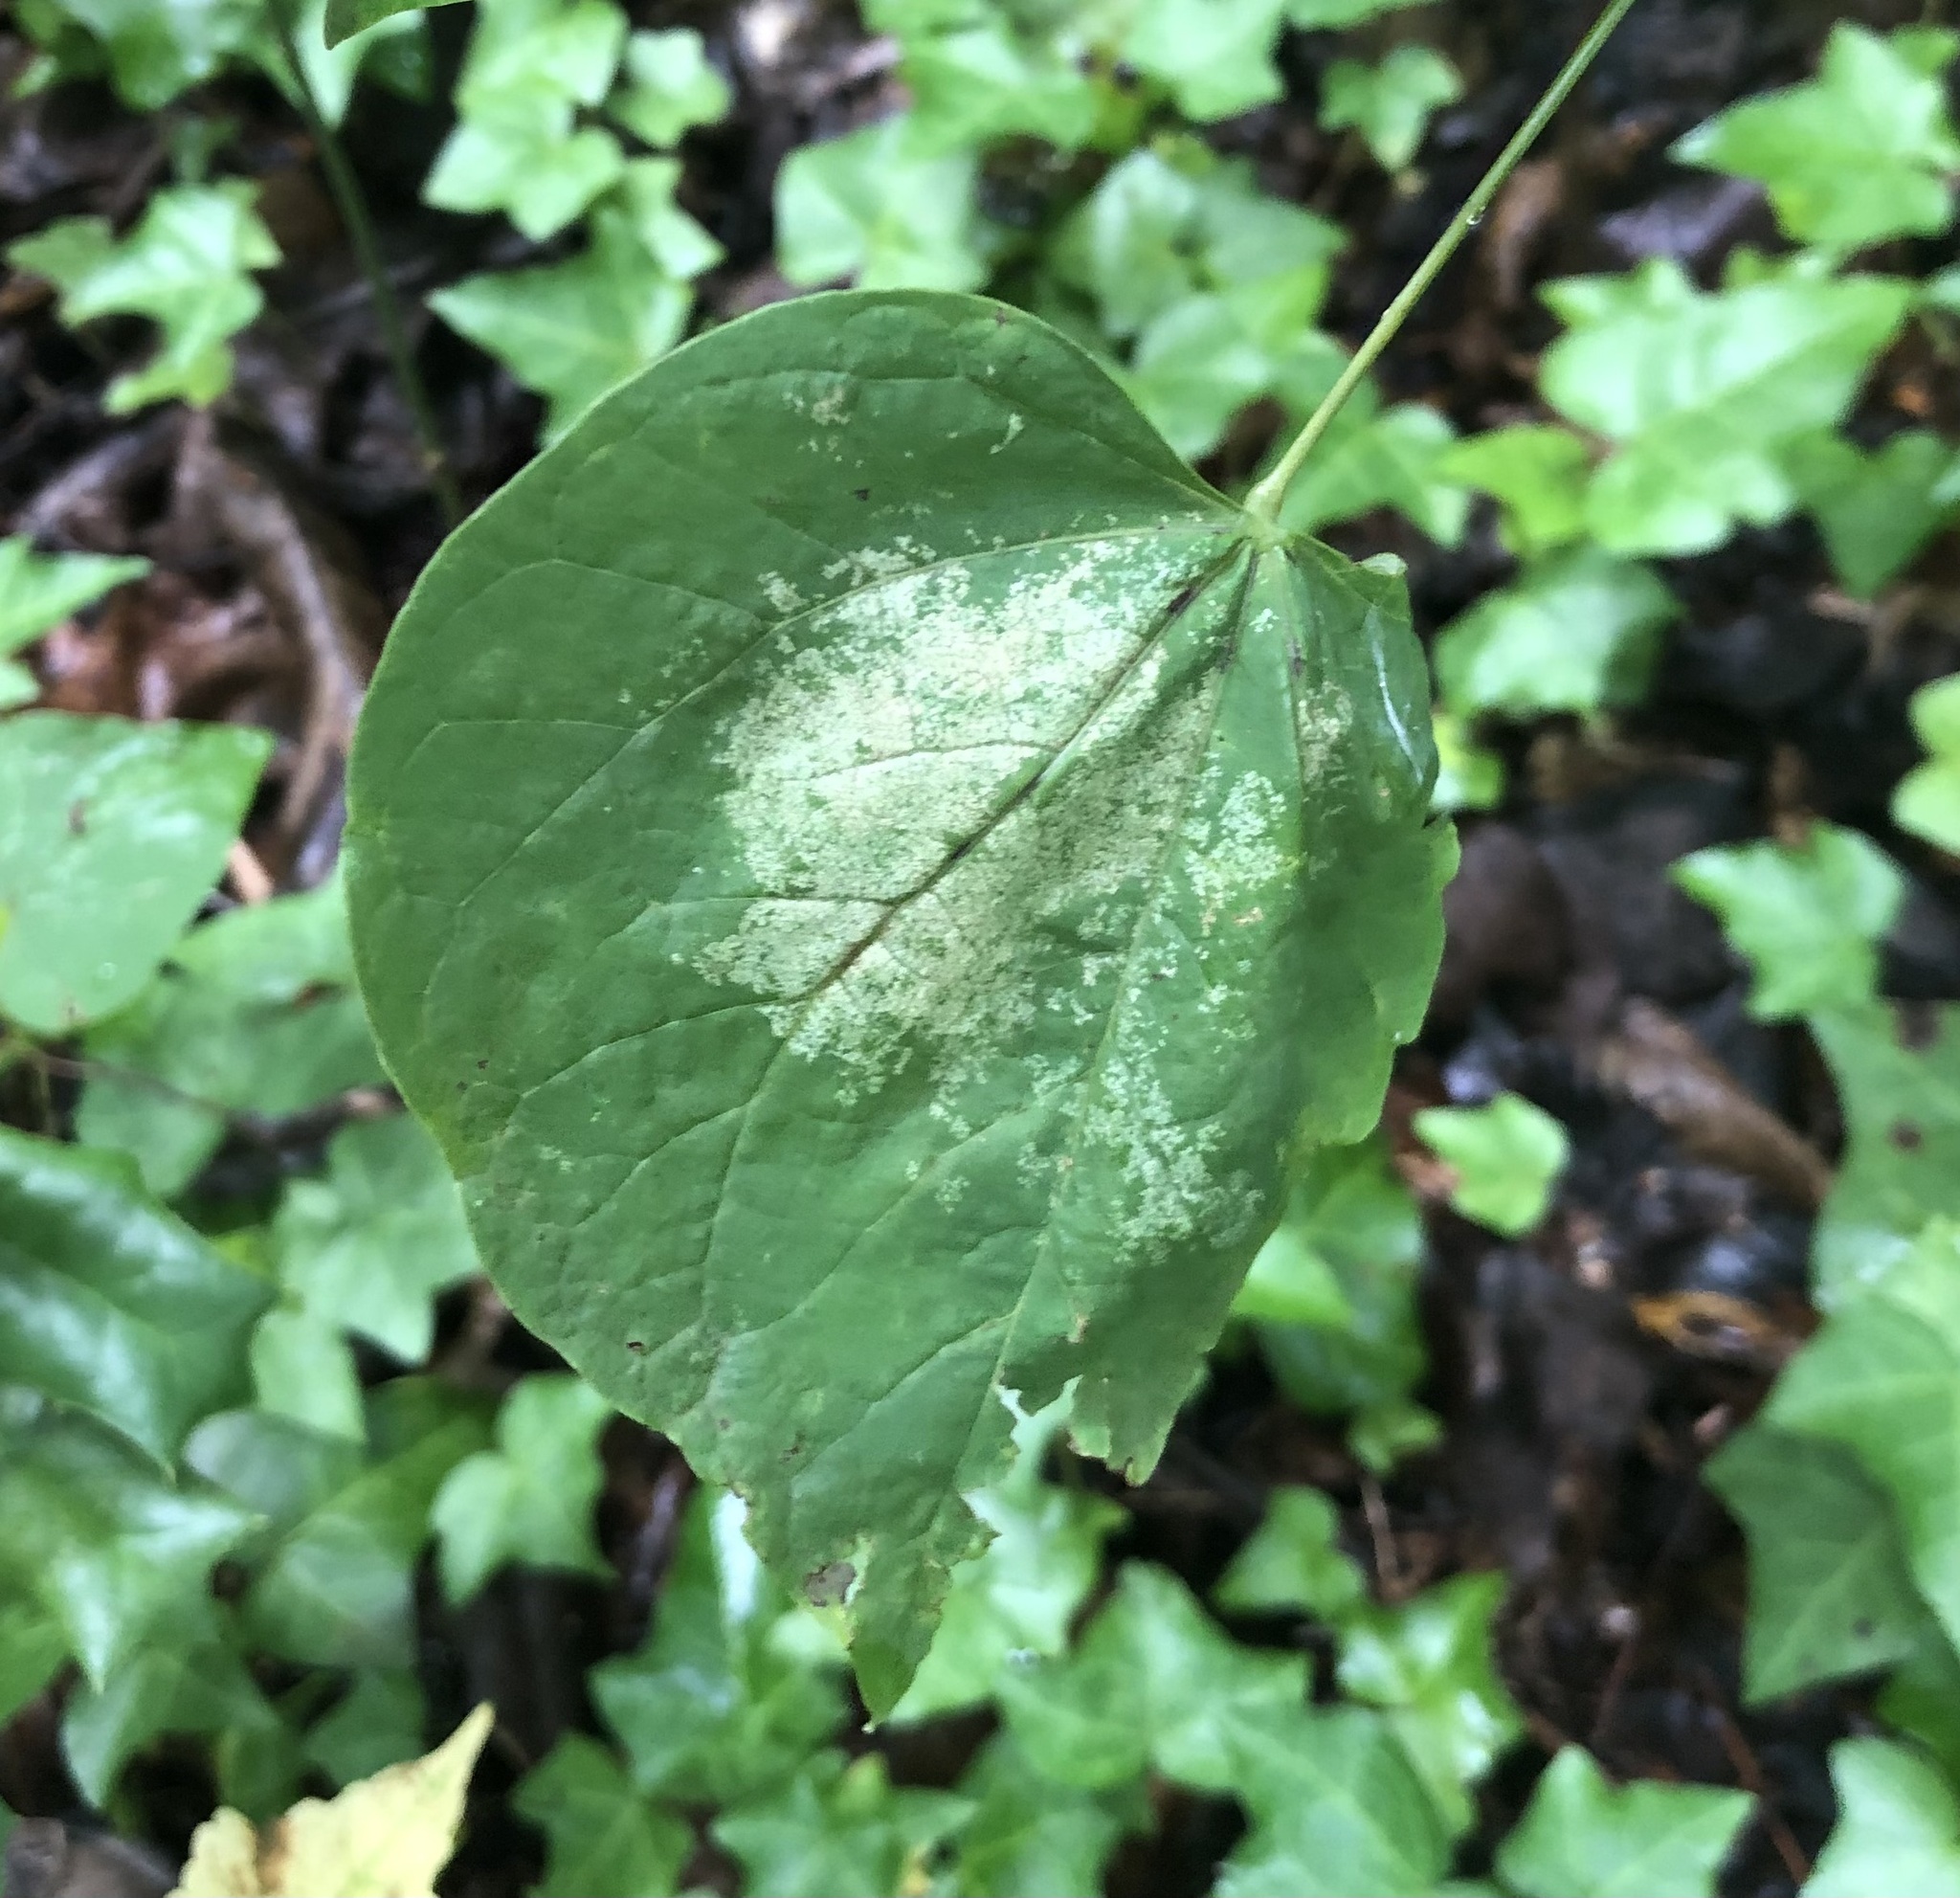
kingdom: Animalia
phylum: Arthropoda
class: Insecta
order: Hemiptera
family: Cicadellidae
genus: Hymetta
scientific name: Hymetta kansasensis
